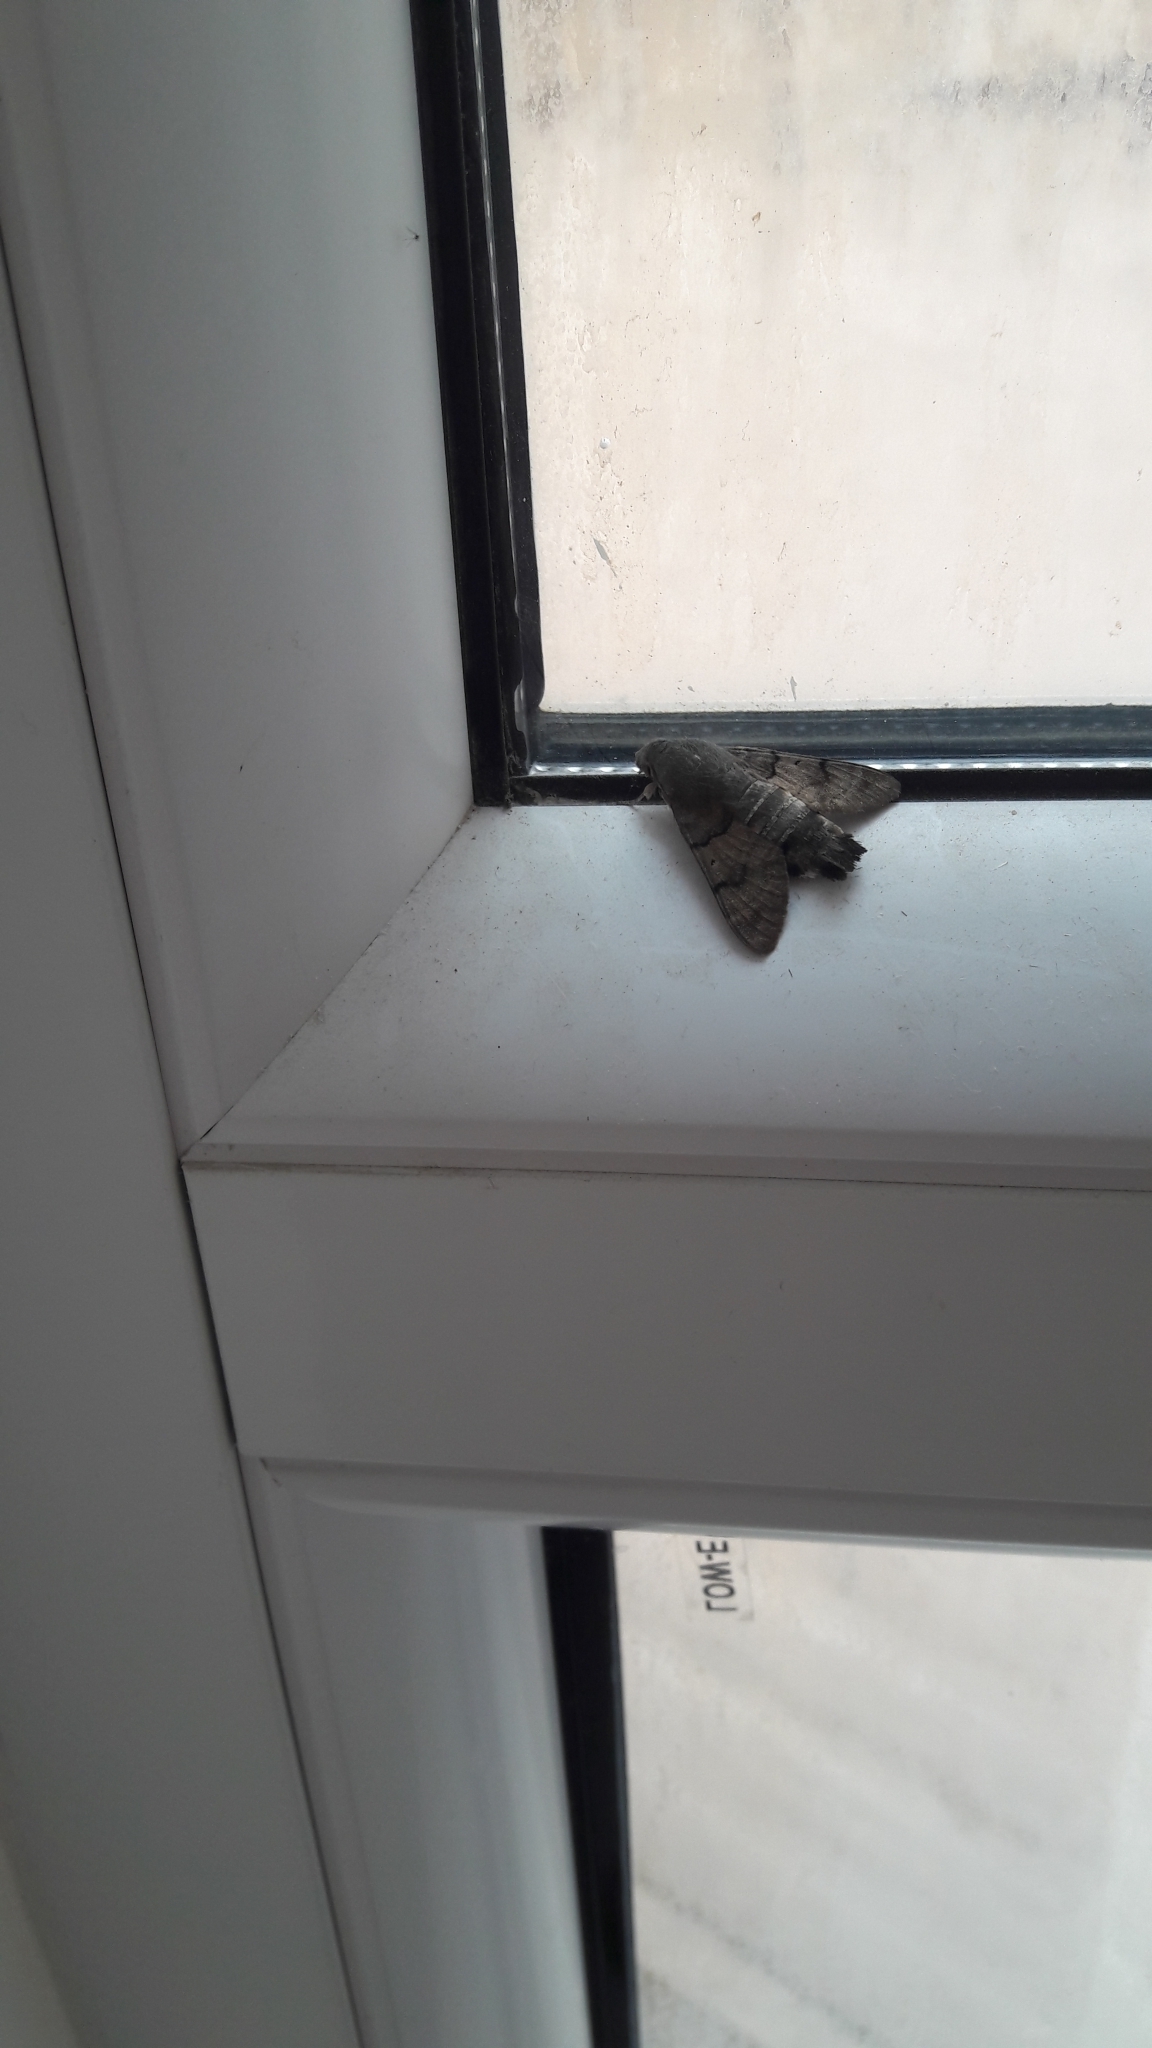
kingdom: Animalia
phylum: Arthropoda
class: Insecta
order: Lepidoptera
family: Sphingidae
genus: Macroglossum
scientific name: Macroglossum stellatarum
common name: Humming-bird hawk-moth
